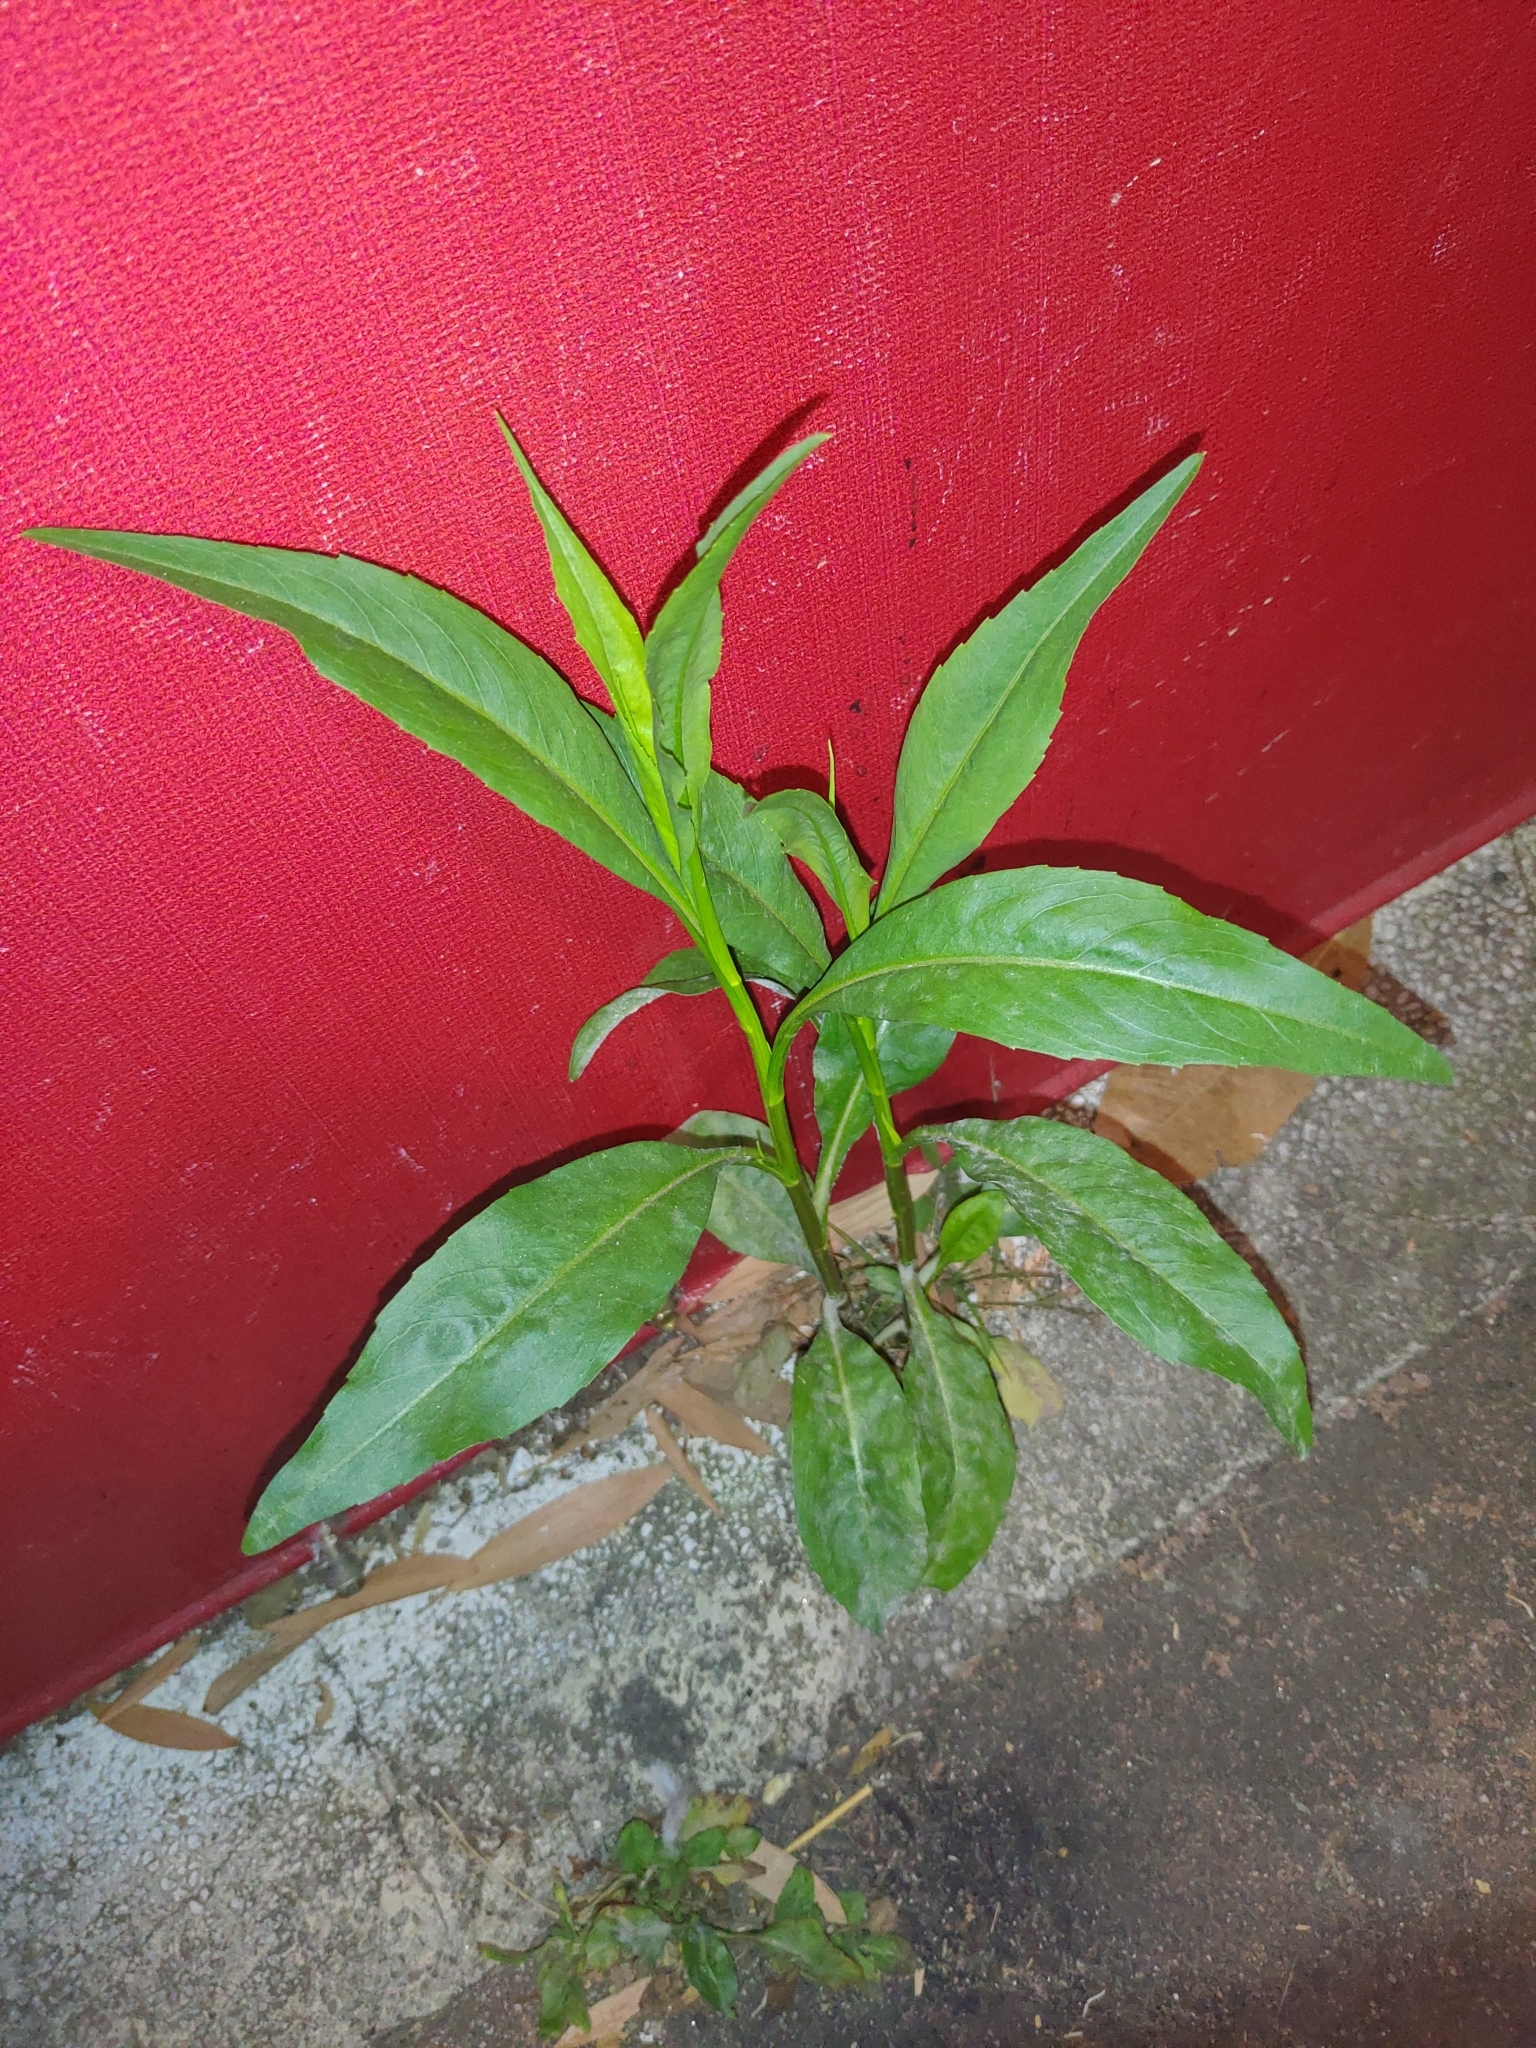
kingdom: Plantae
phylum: Tracheophyta
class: Magnoliopsida
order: Asterales
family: Asteraceae
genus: Symphyotrichum
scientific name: Symphyotrichum subulatum
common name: Annual saltmarsh aster
